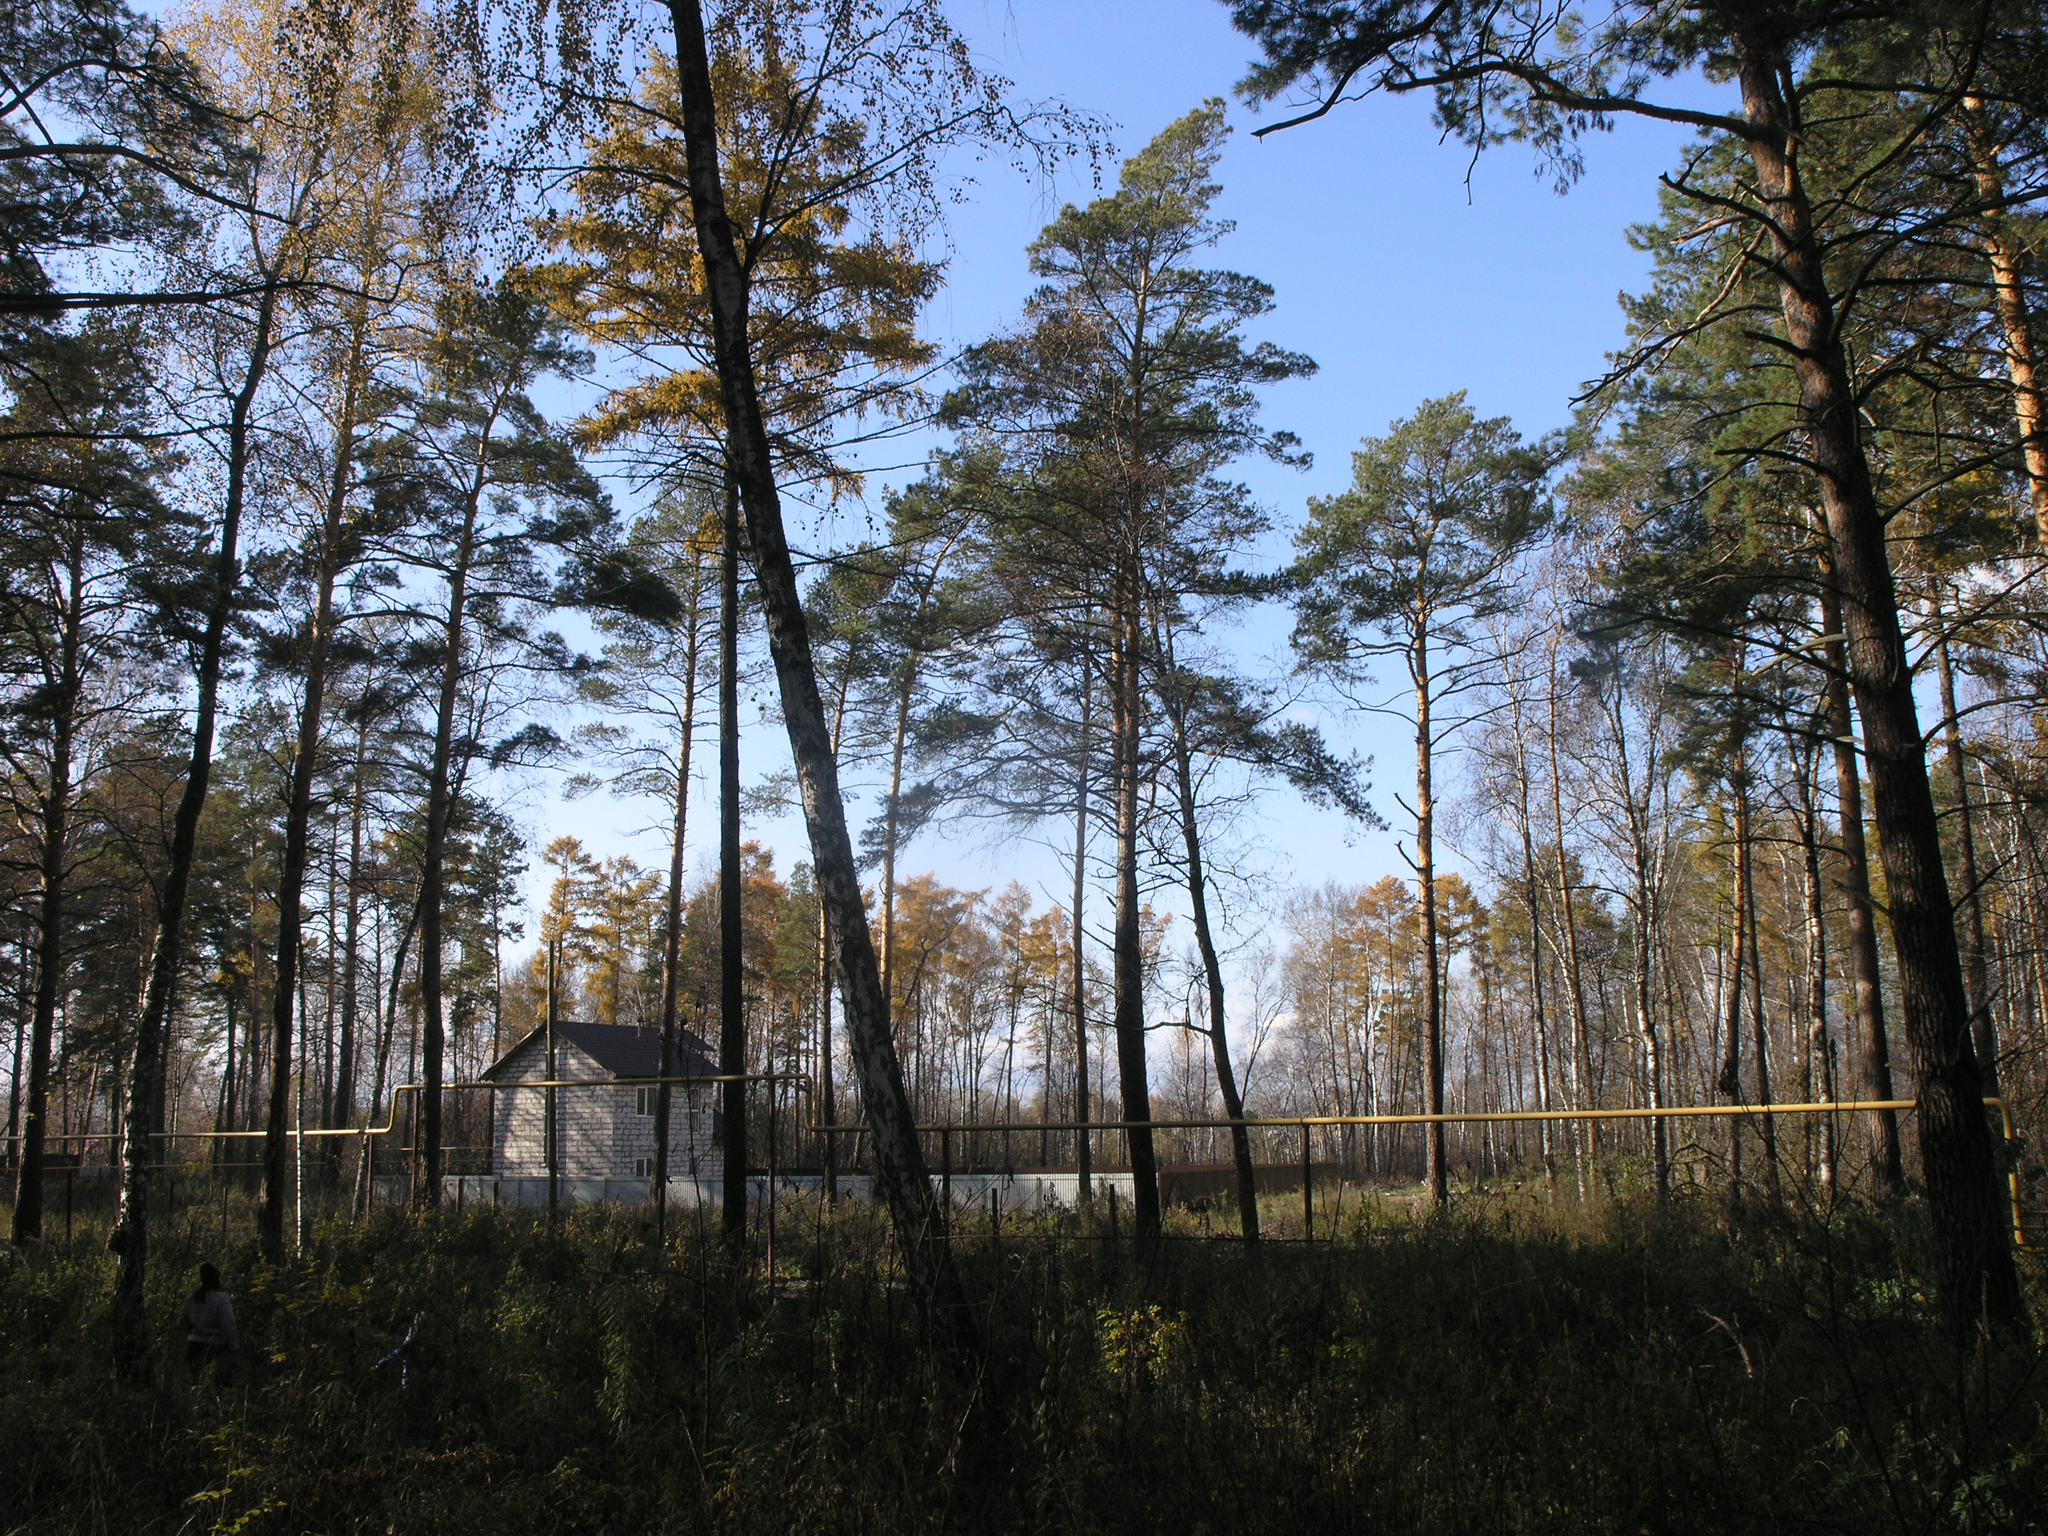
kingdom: Plantae
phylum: Tracheophyta
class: Pinopsida
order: Pinales
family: Pinaceae
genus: Pinus
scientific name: Pinus sylvestris
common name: Scots pine
